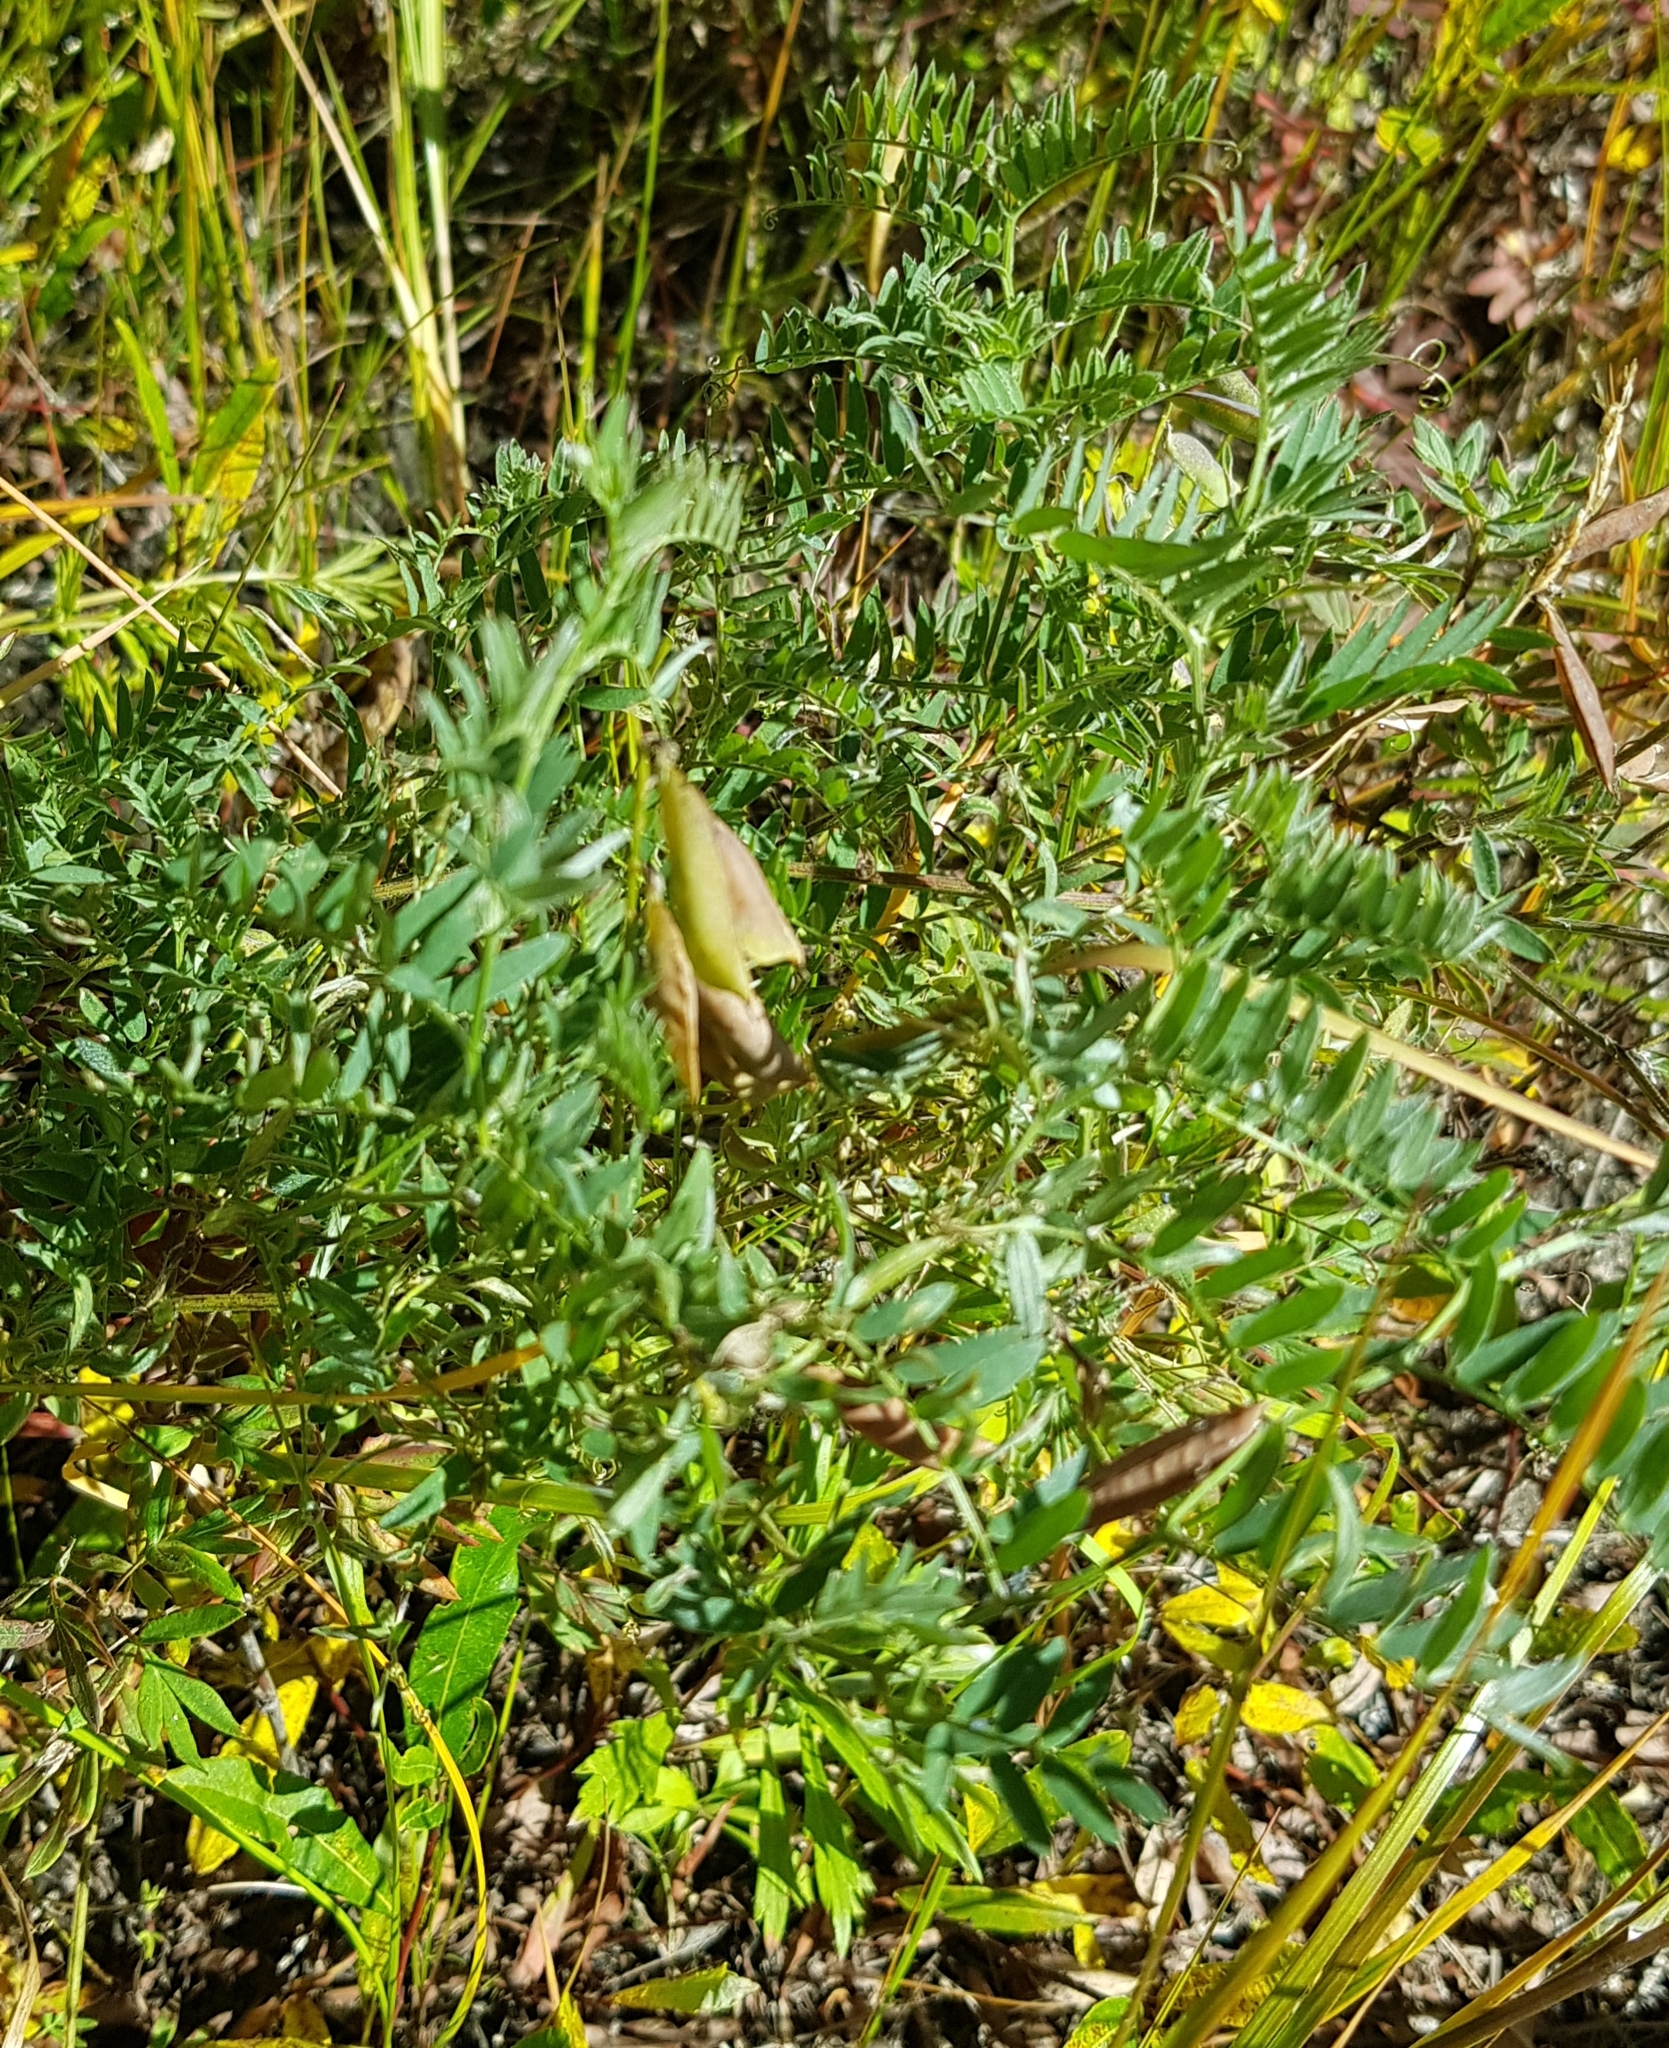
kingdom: Plantae
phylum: Tracheophyta
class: Magnoliopsida
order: Fabales
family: Fabaceae
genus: Vicia
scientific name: Vicia cracca
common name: Bird vetch
